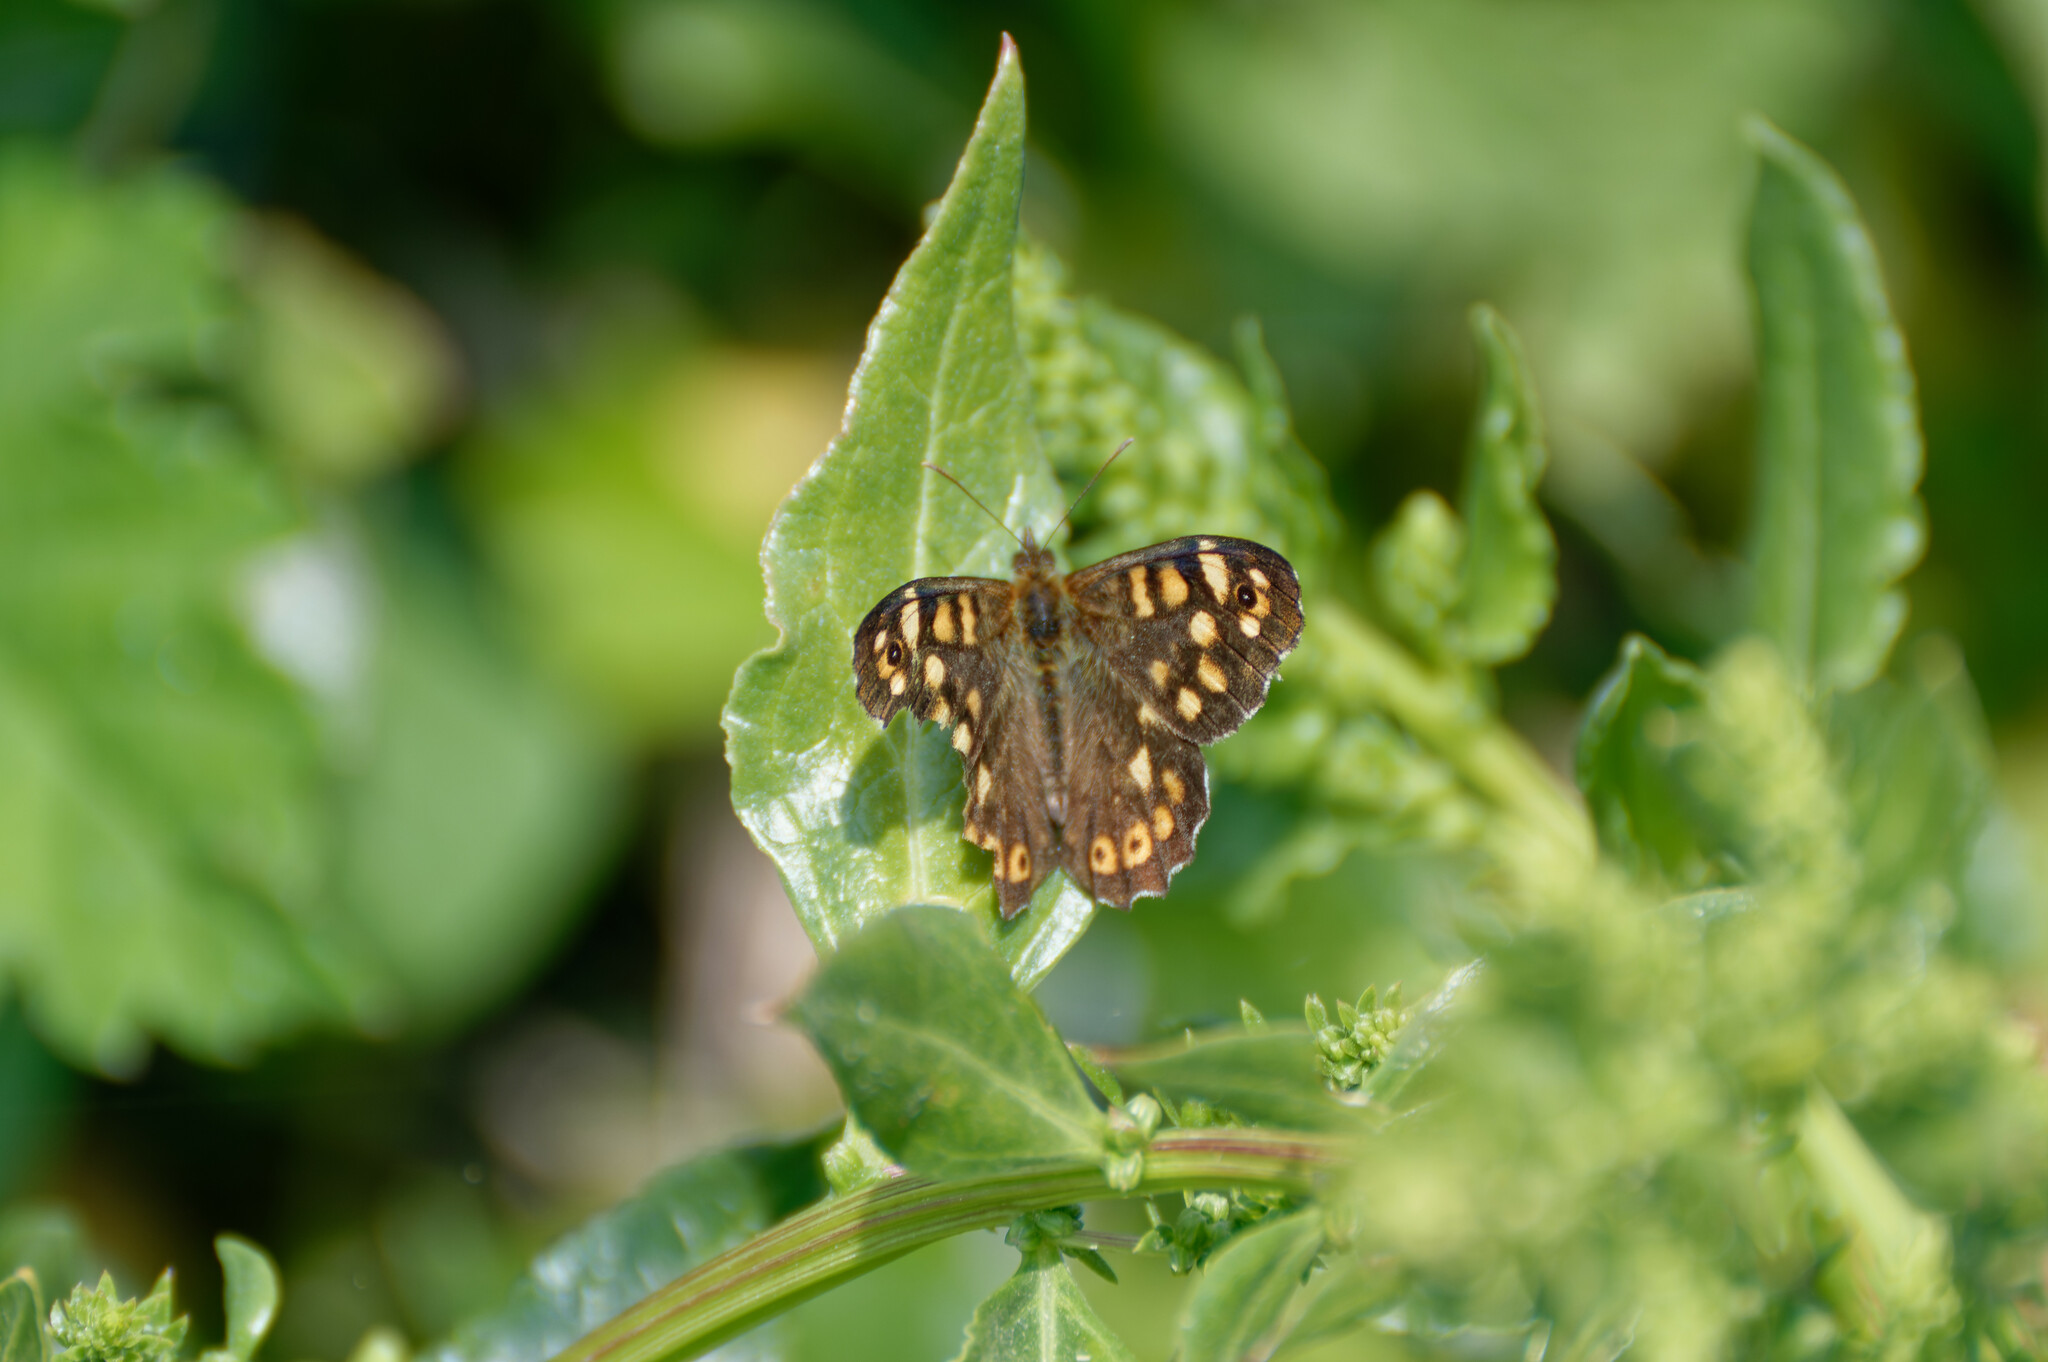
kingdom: Animalia
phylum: Arthropoda
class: Insecta
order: Lepidoptera
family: Nymphalidae
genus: Pararge
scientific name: Pararge aegeria
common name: Speckled wood
